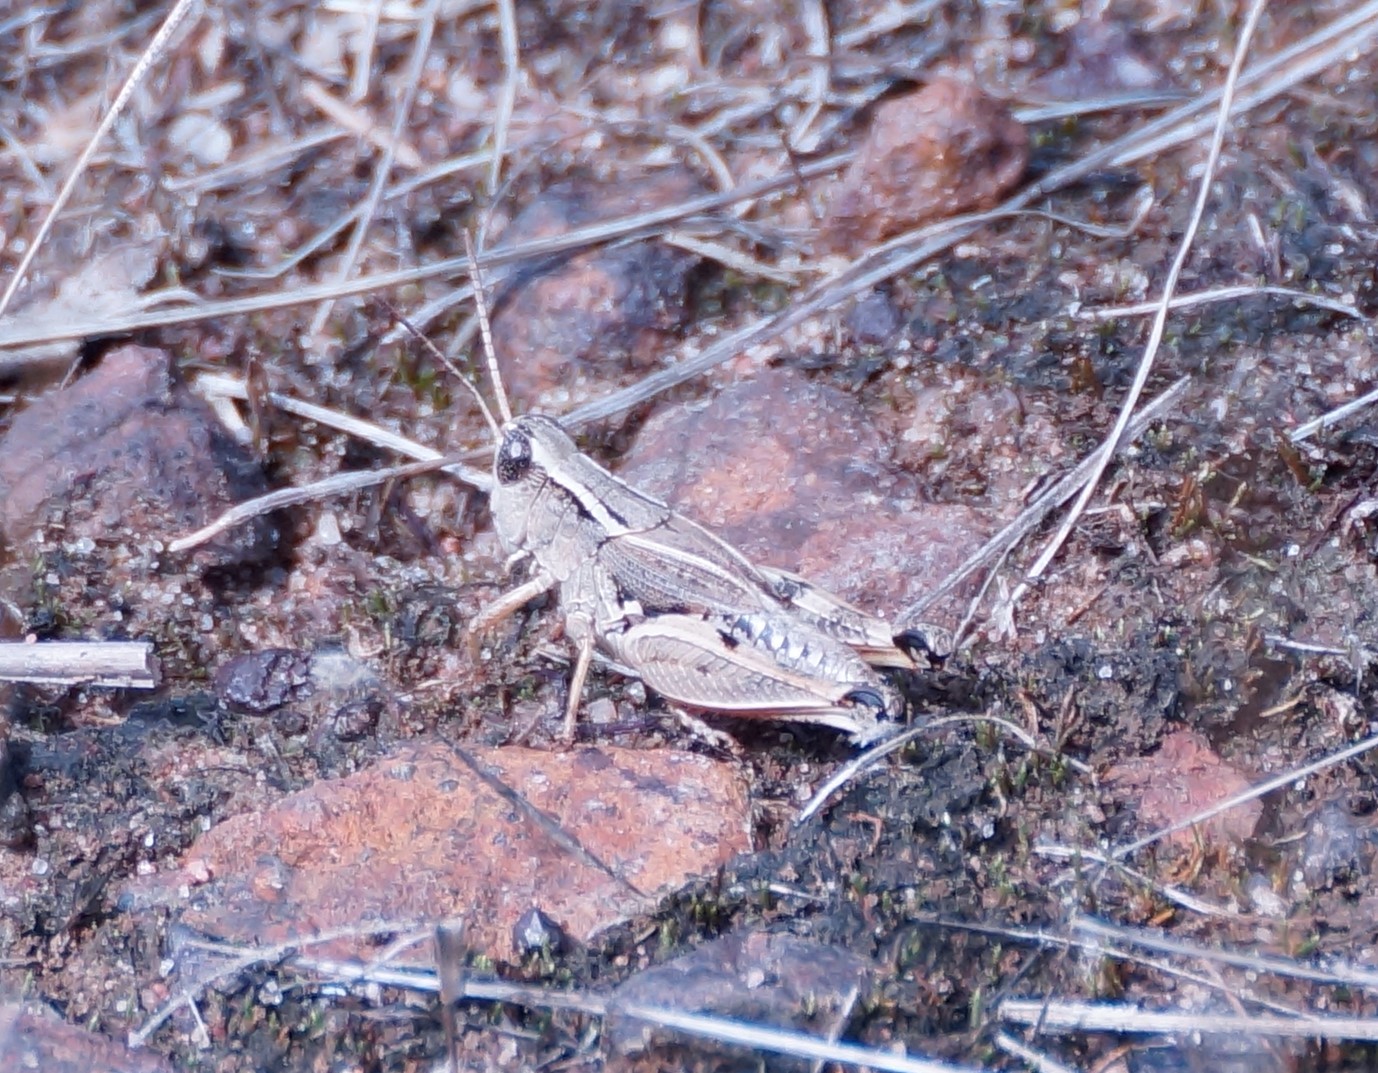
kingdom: Animalia
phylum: Arthropoda
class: Insecta
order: Orthoptera
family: Acrididae
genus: Phaulacridium
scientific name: Phaulacridium vittatum
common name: Wingless grasshopper
